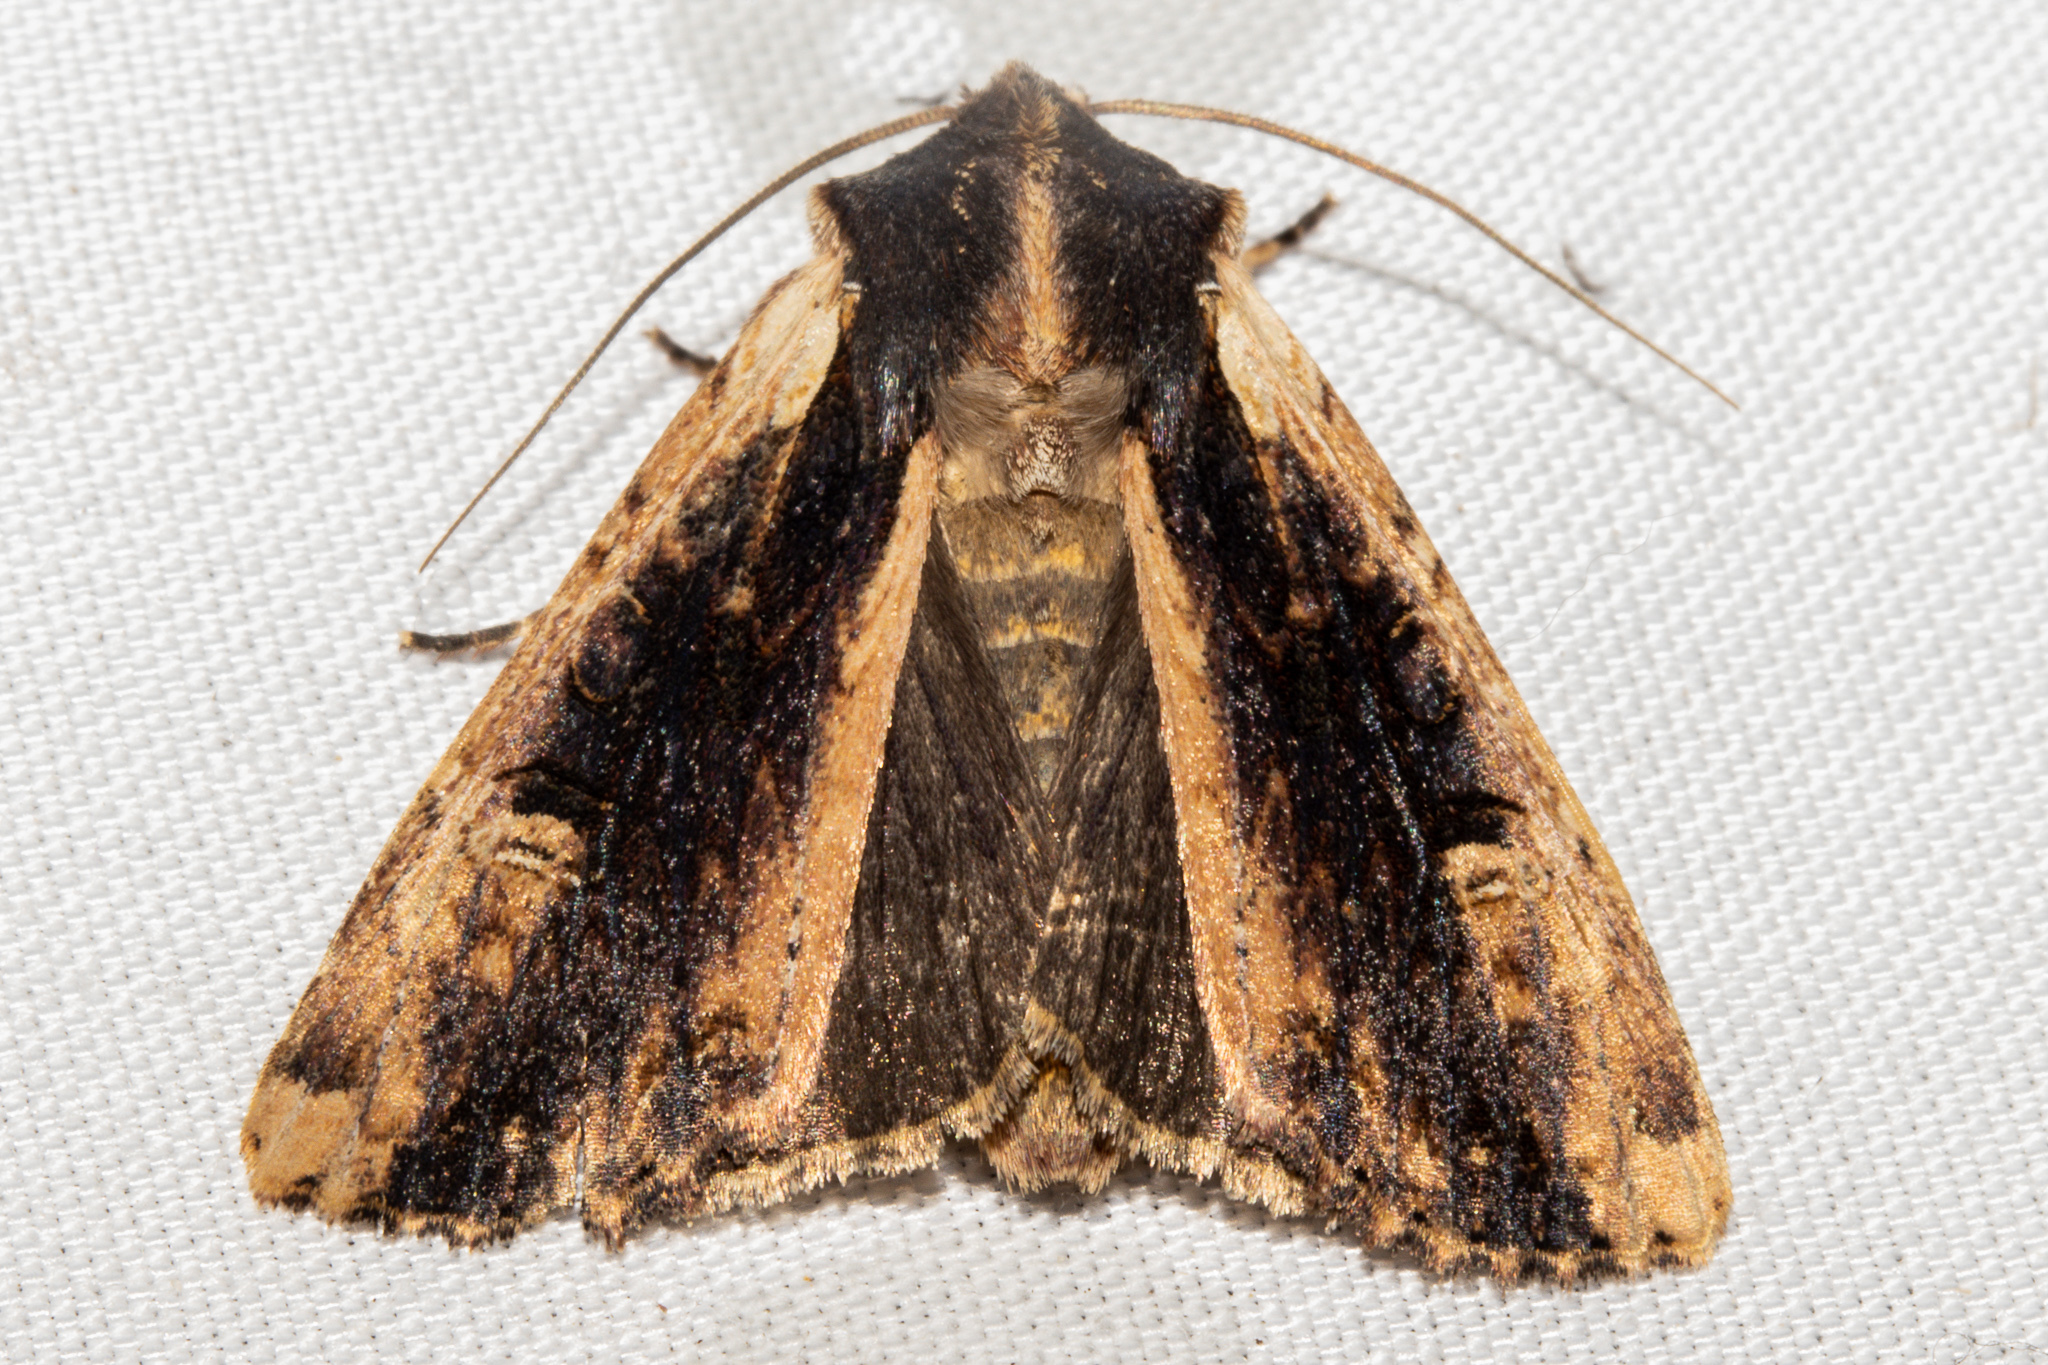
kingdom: Animalia
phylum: Arthropoda
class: Insecta
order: Lepidoptera
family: Noctuidae
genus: Ichneutica
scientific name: Ichneutica omoplaca
